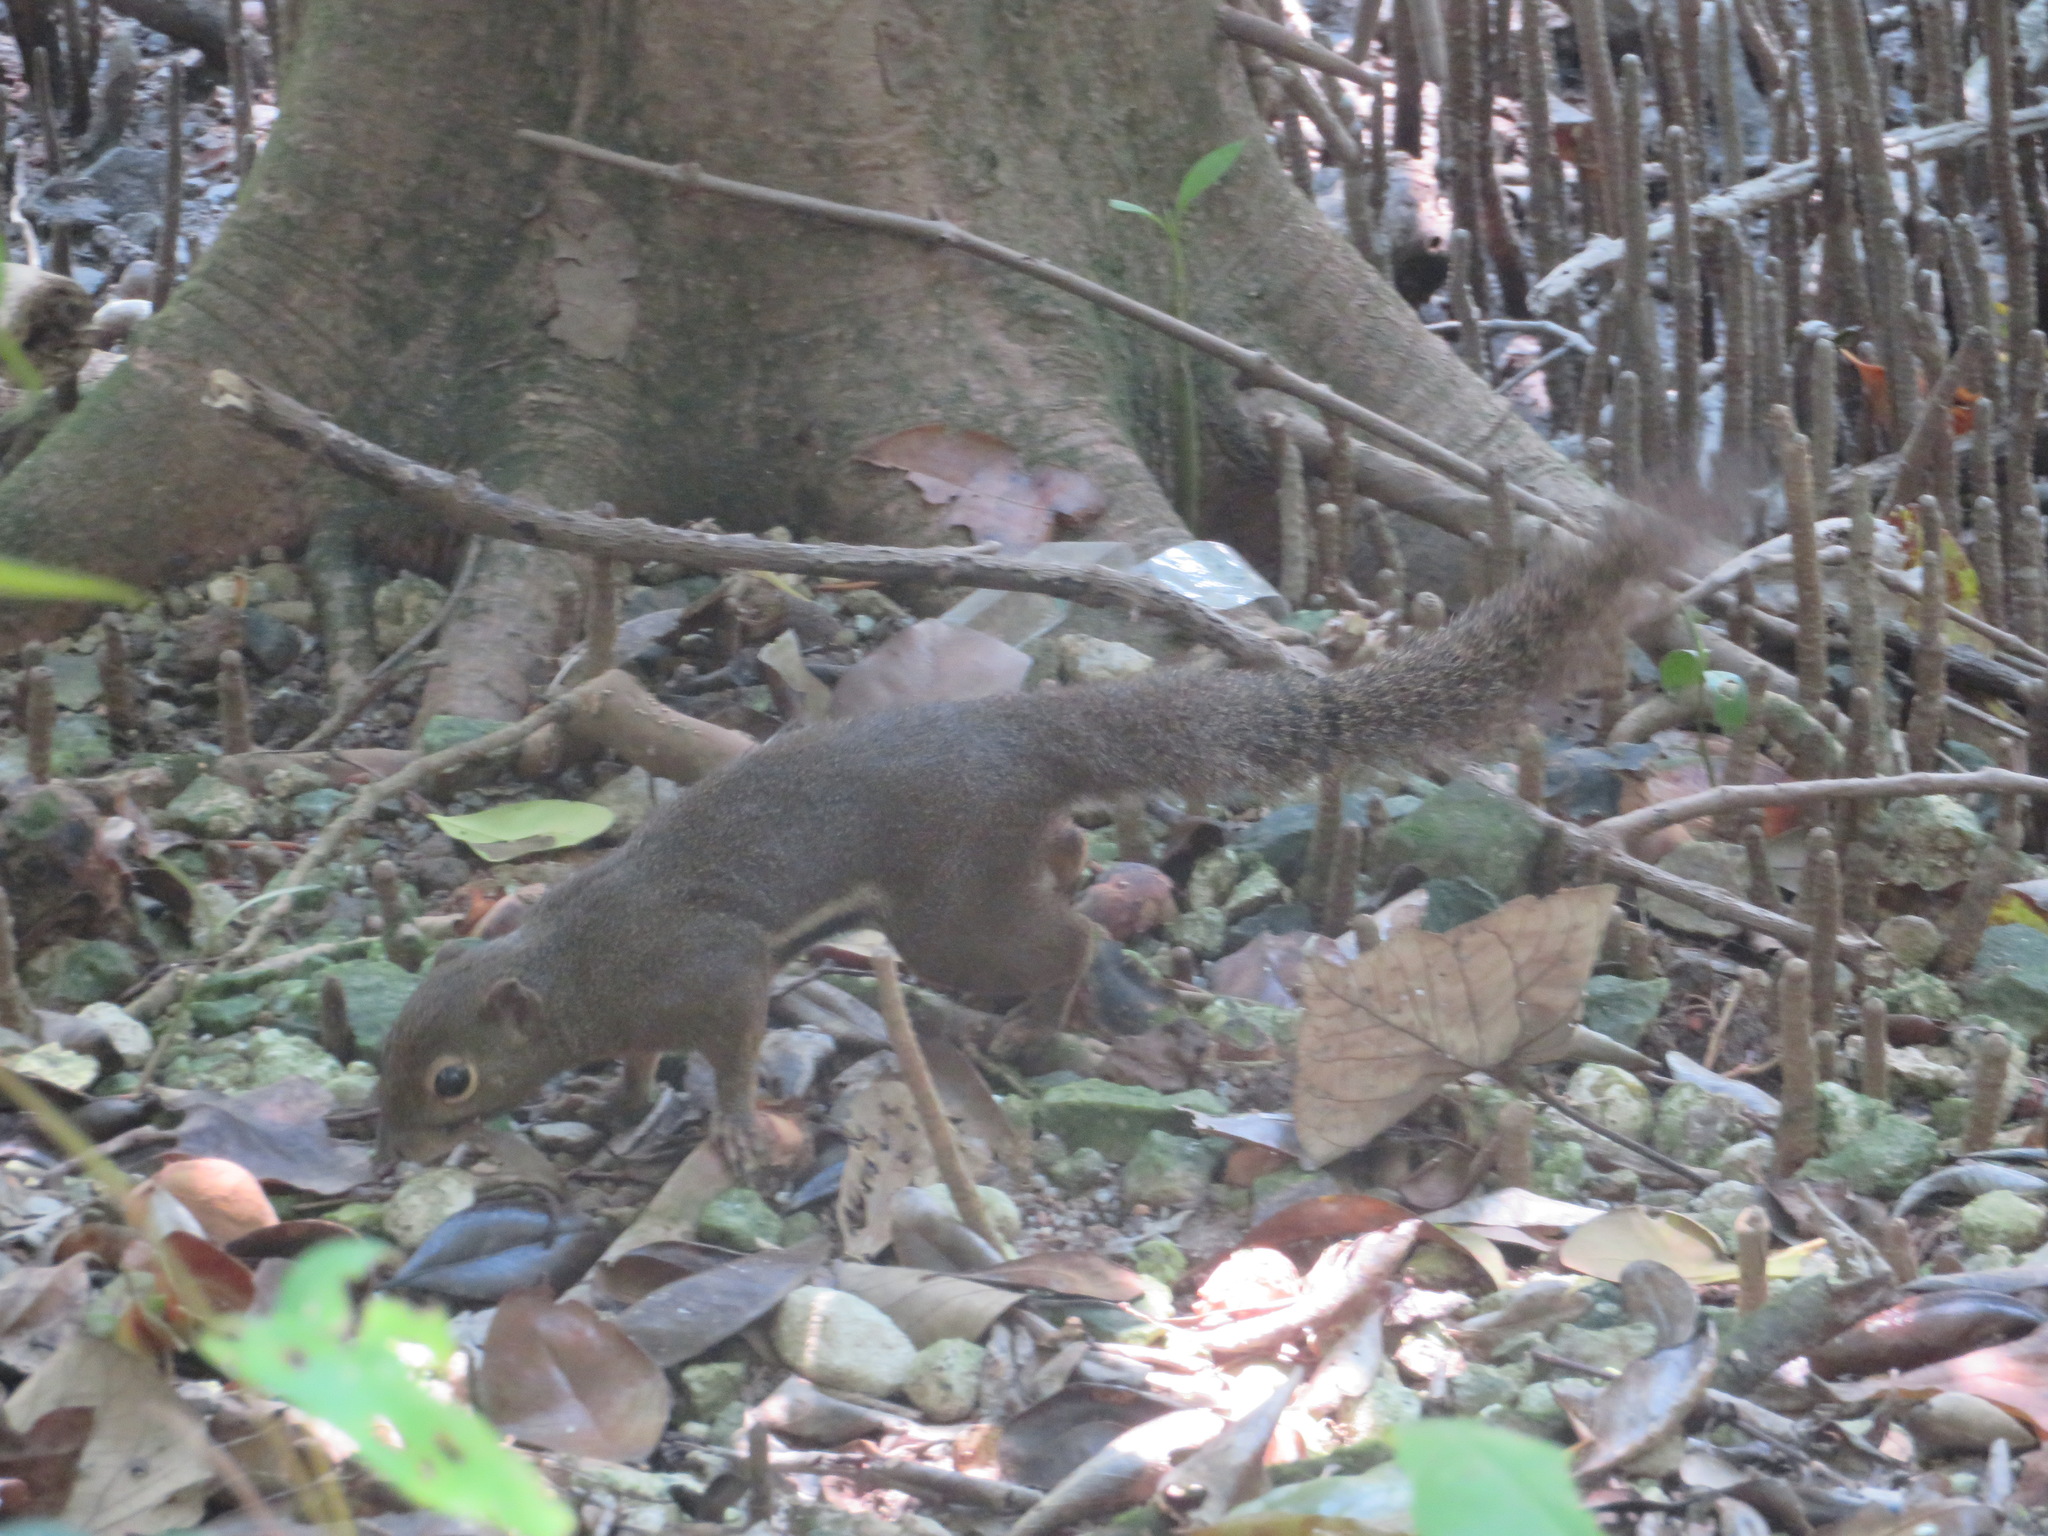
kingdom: Animalia
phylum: Chordata
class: Mammalia
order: Rodentia
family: Sciuridae
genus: Callosciurus
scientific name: Callosciurus notatus
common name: Plantain squirrel
